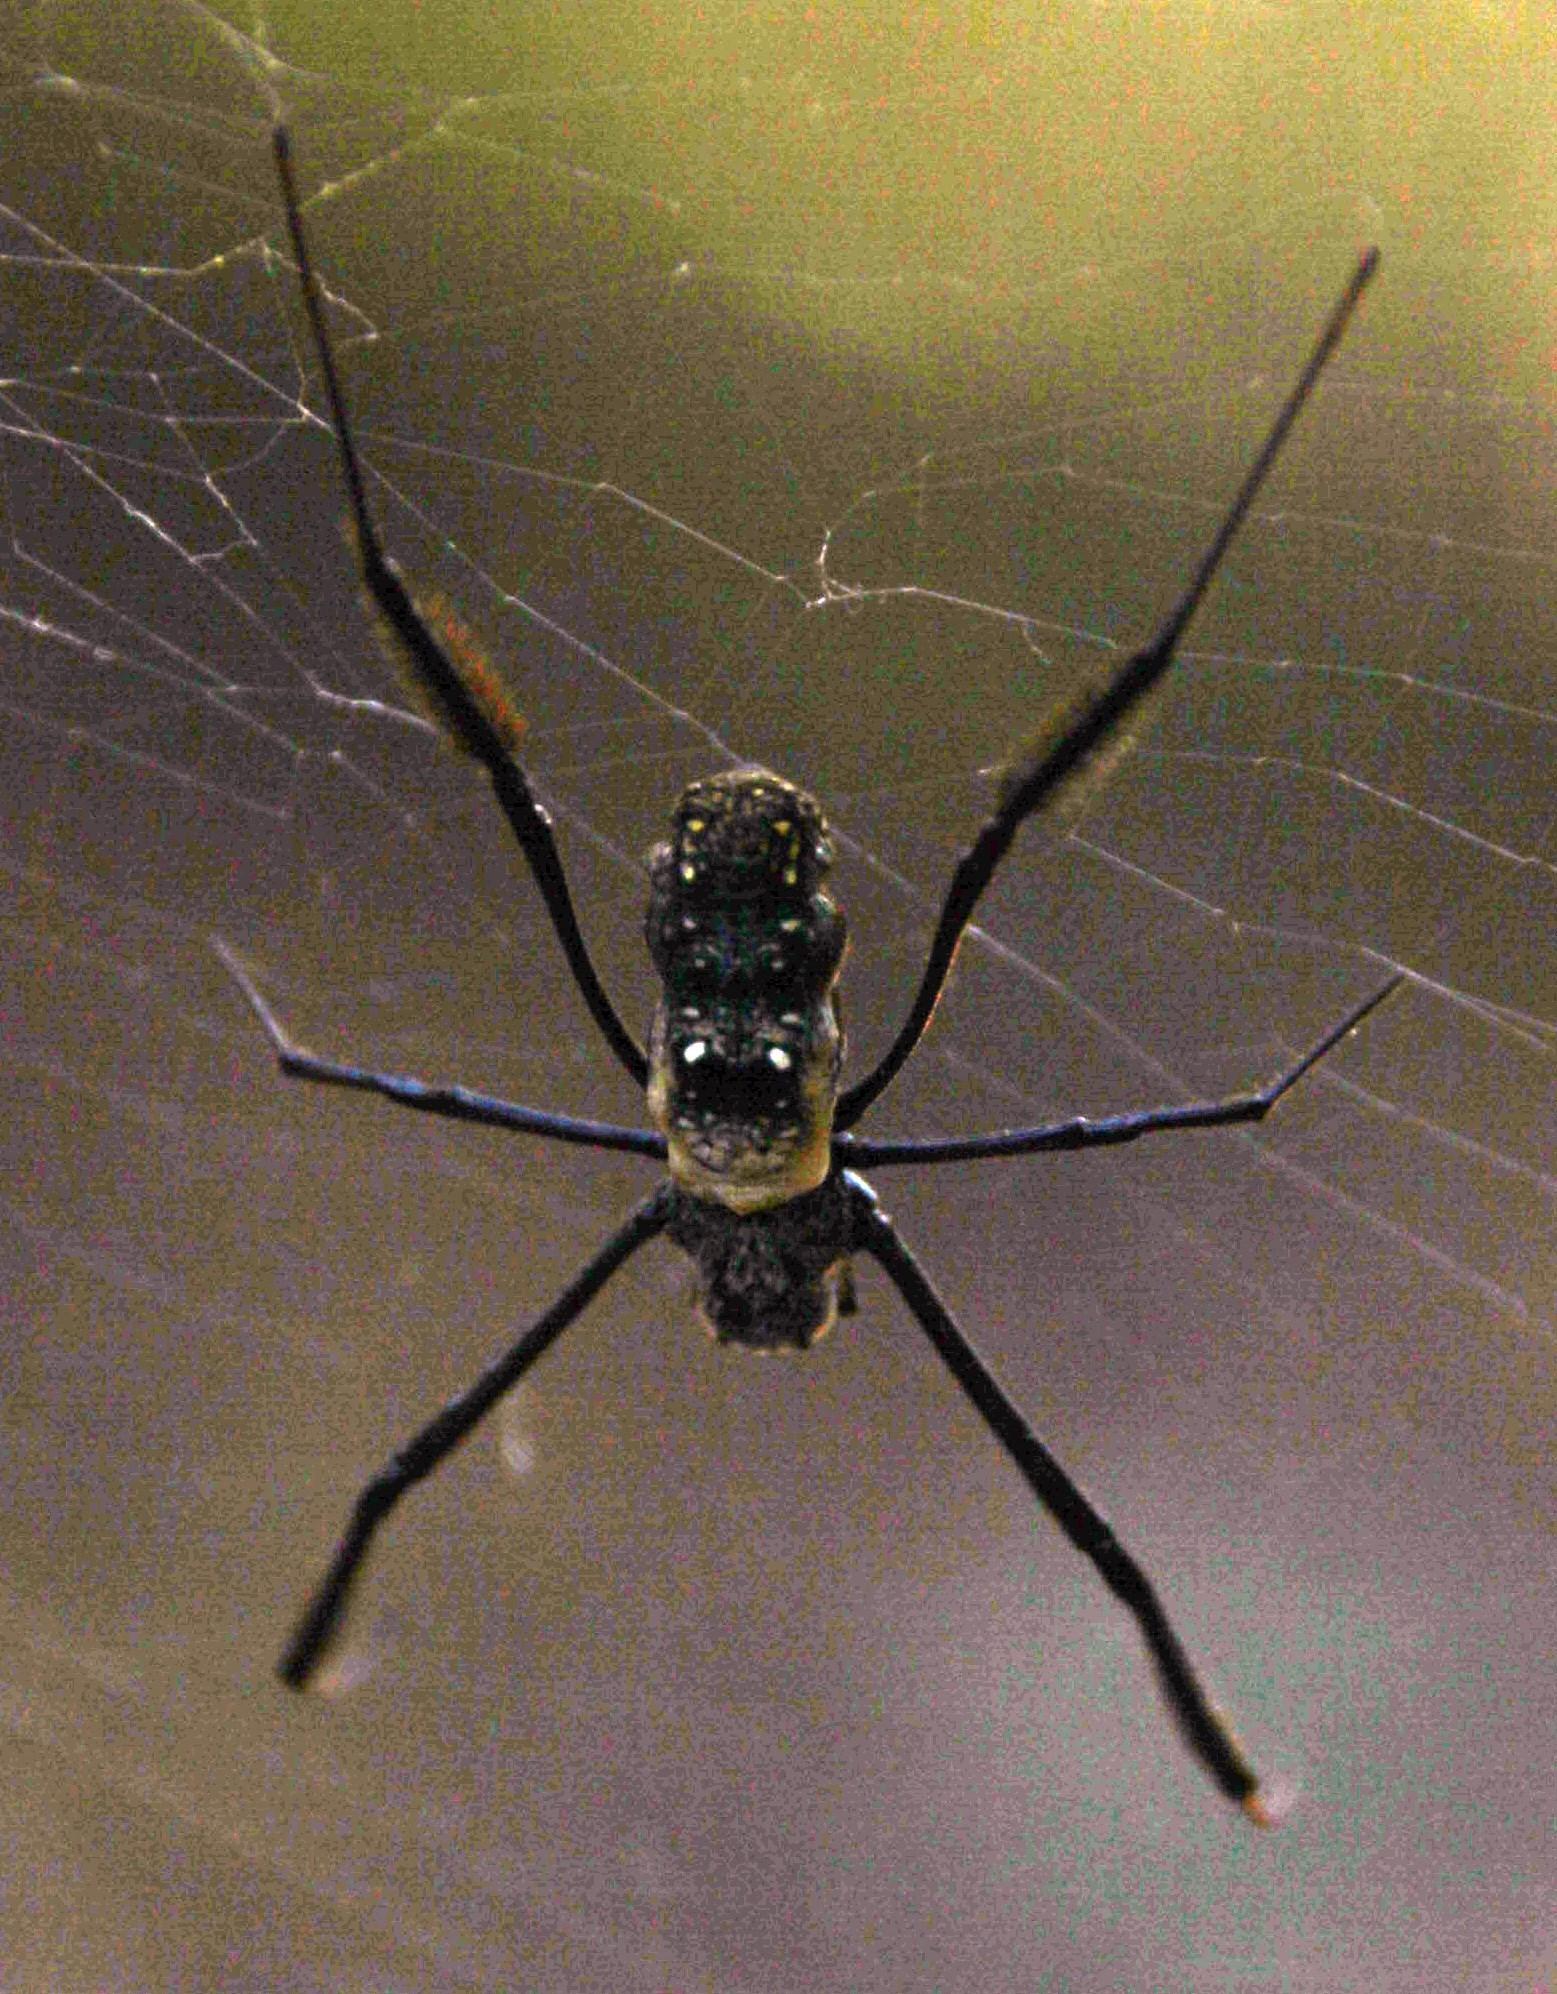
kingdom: Animalia
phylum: Arthropoda
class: Arachnida
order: Araneae
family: Araneidae
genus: Trichonephila
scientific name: Trichonephila fenestrata
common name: Hairy golden orb weaver
